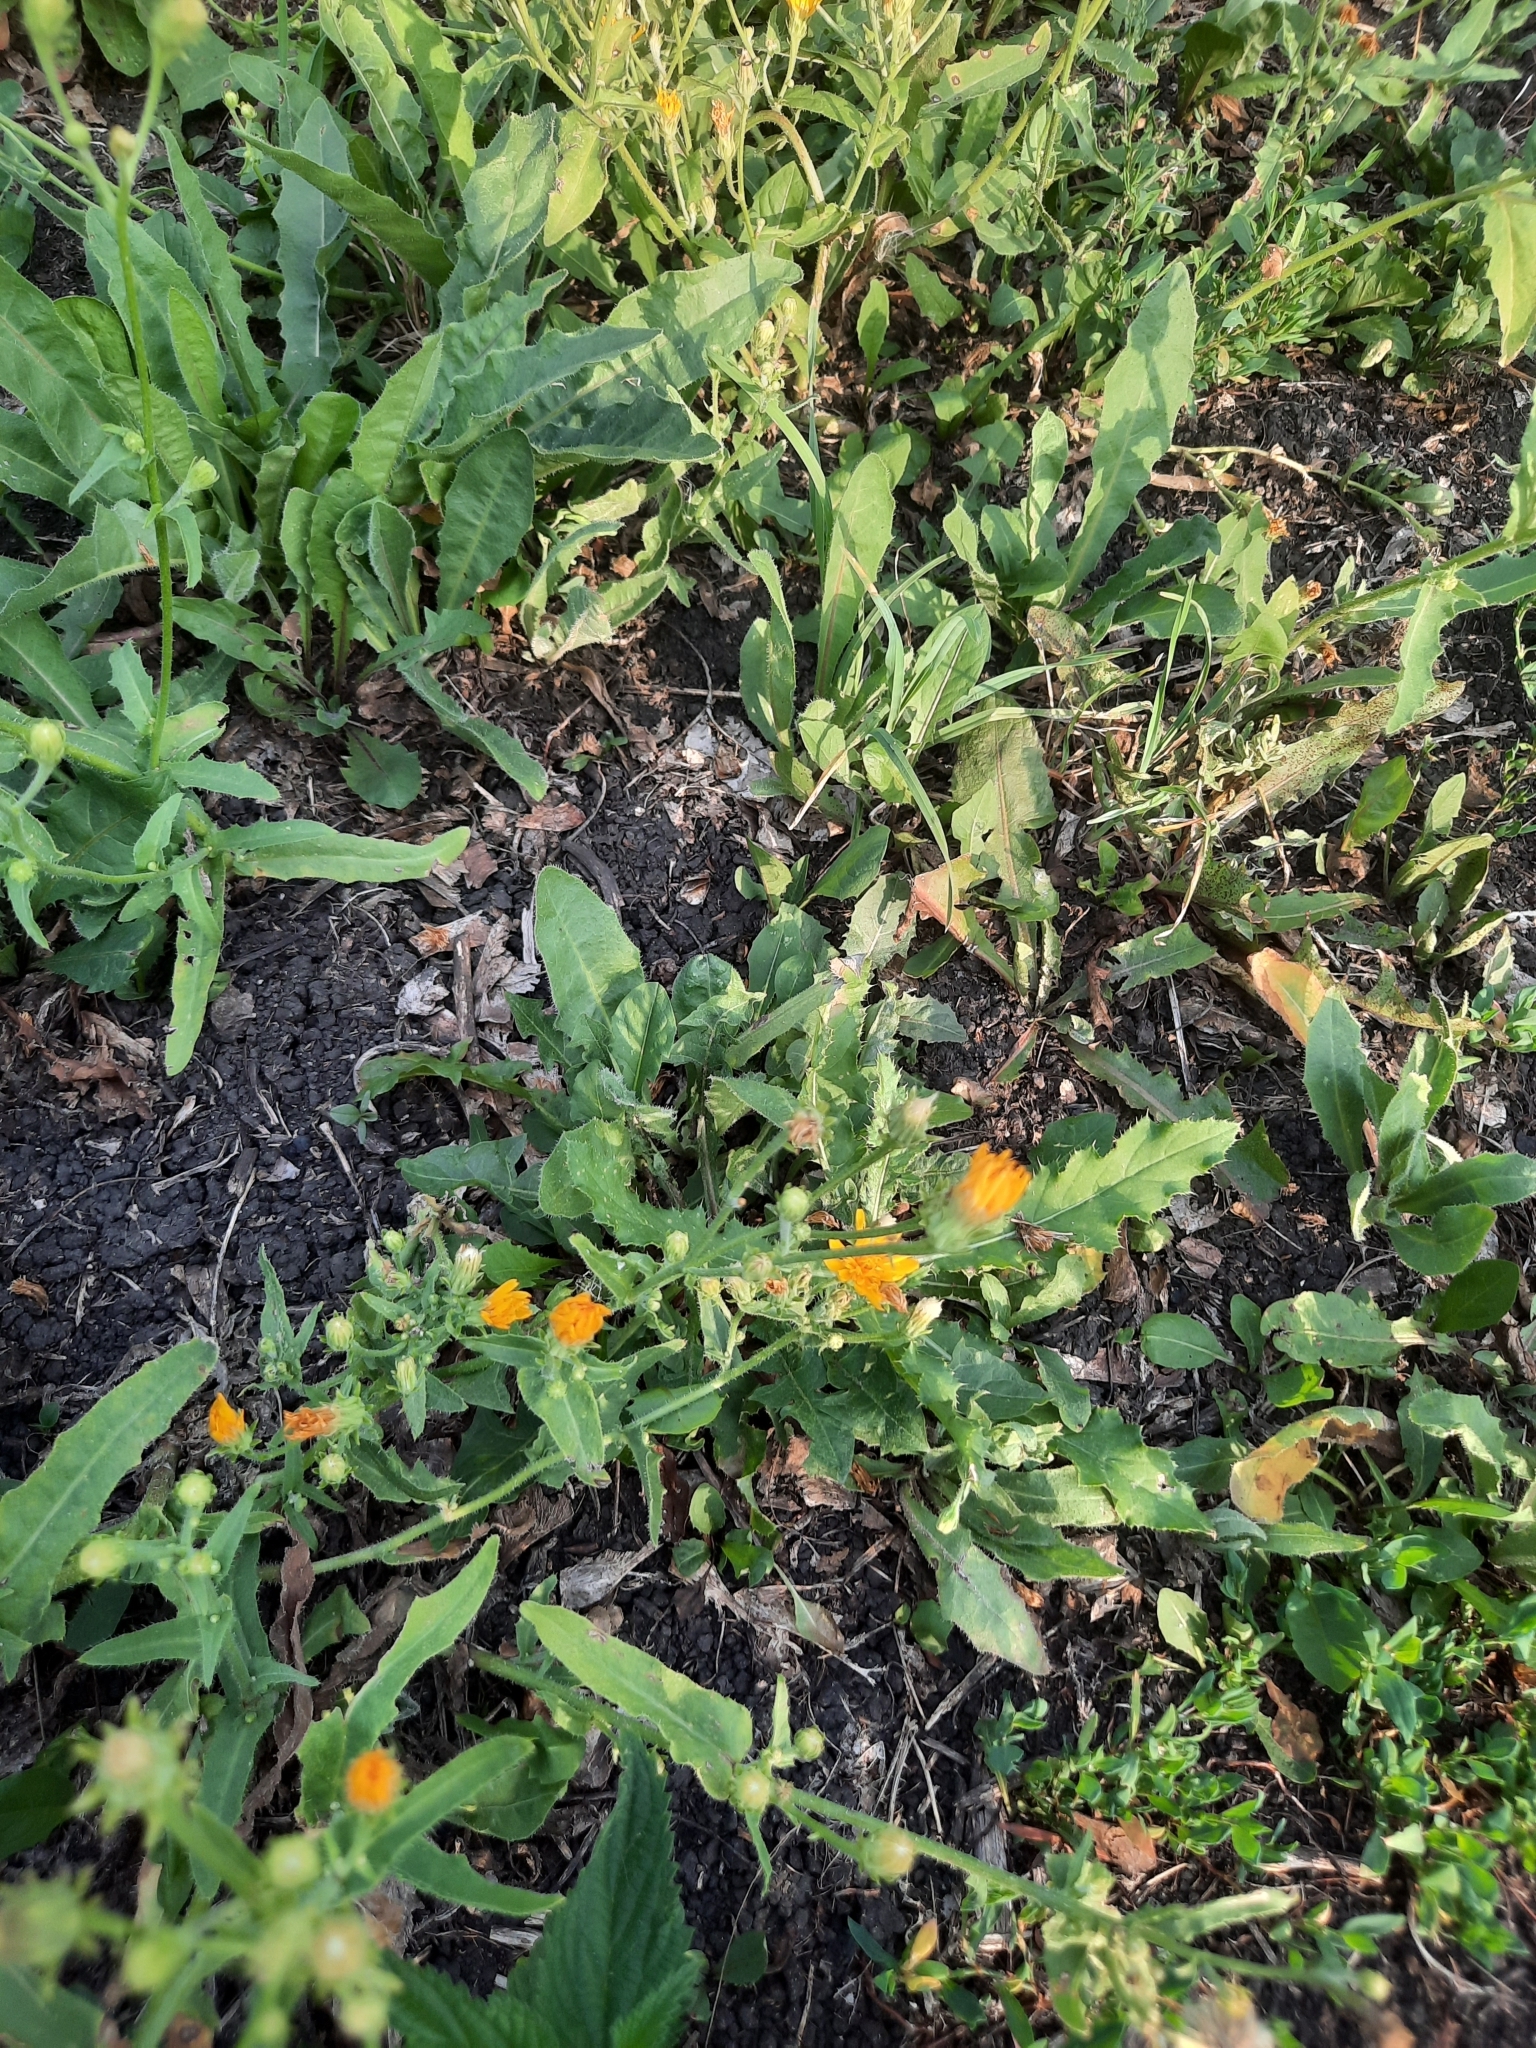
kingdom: Plantae
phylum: Tracheophyta
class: Magnoliopsida
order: Asterales
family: Asteraceae
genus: Picris
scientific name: Picris hieracioides
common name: Hawkweed oxtongue
